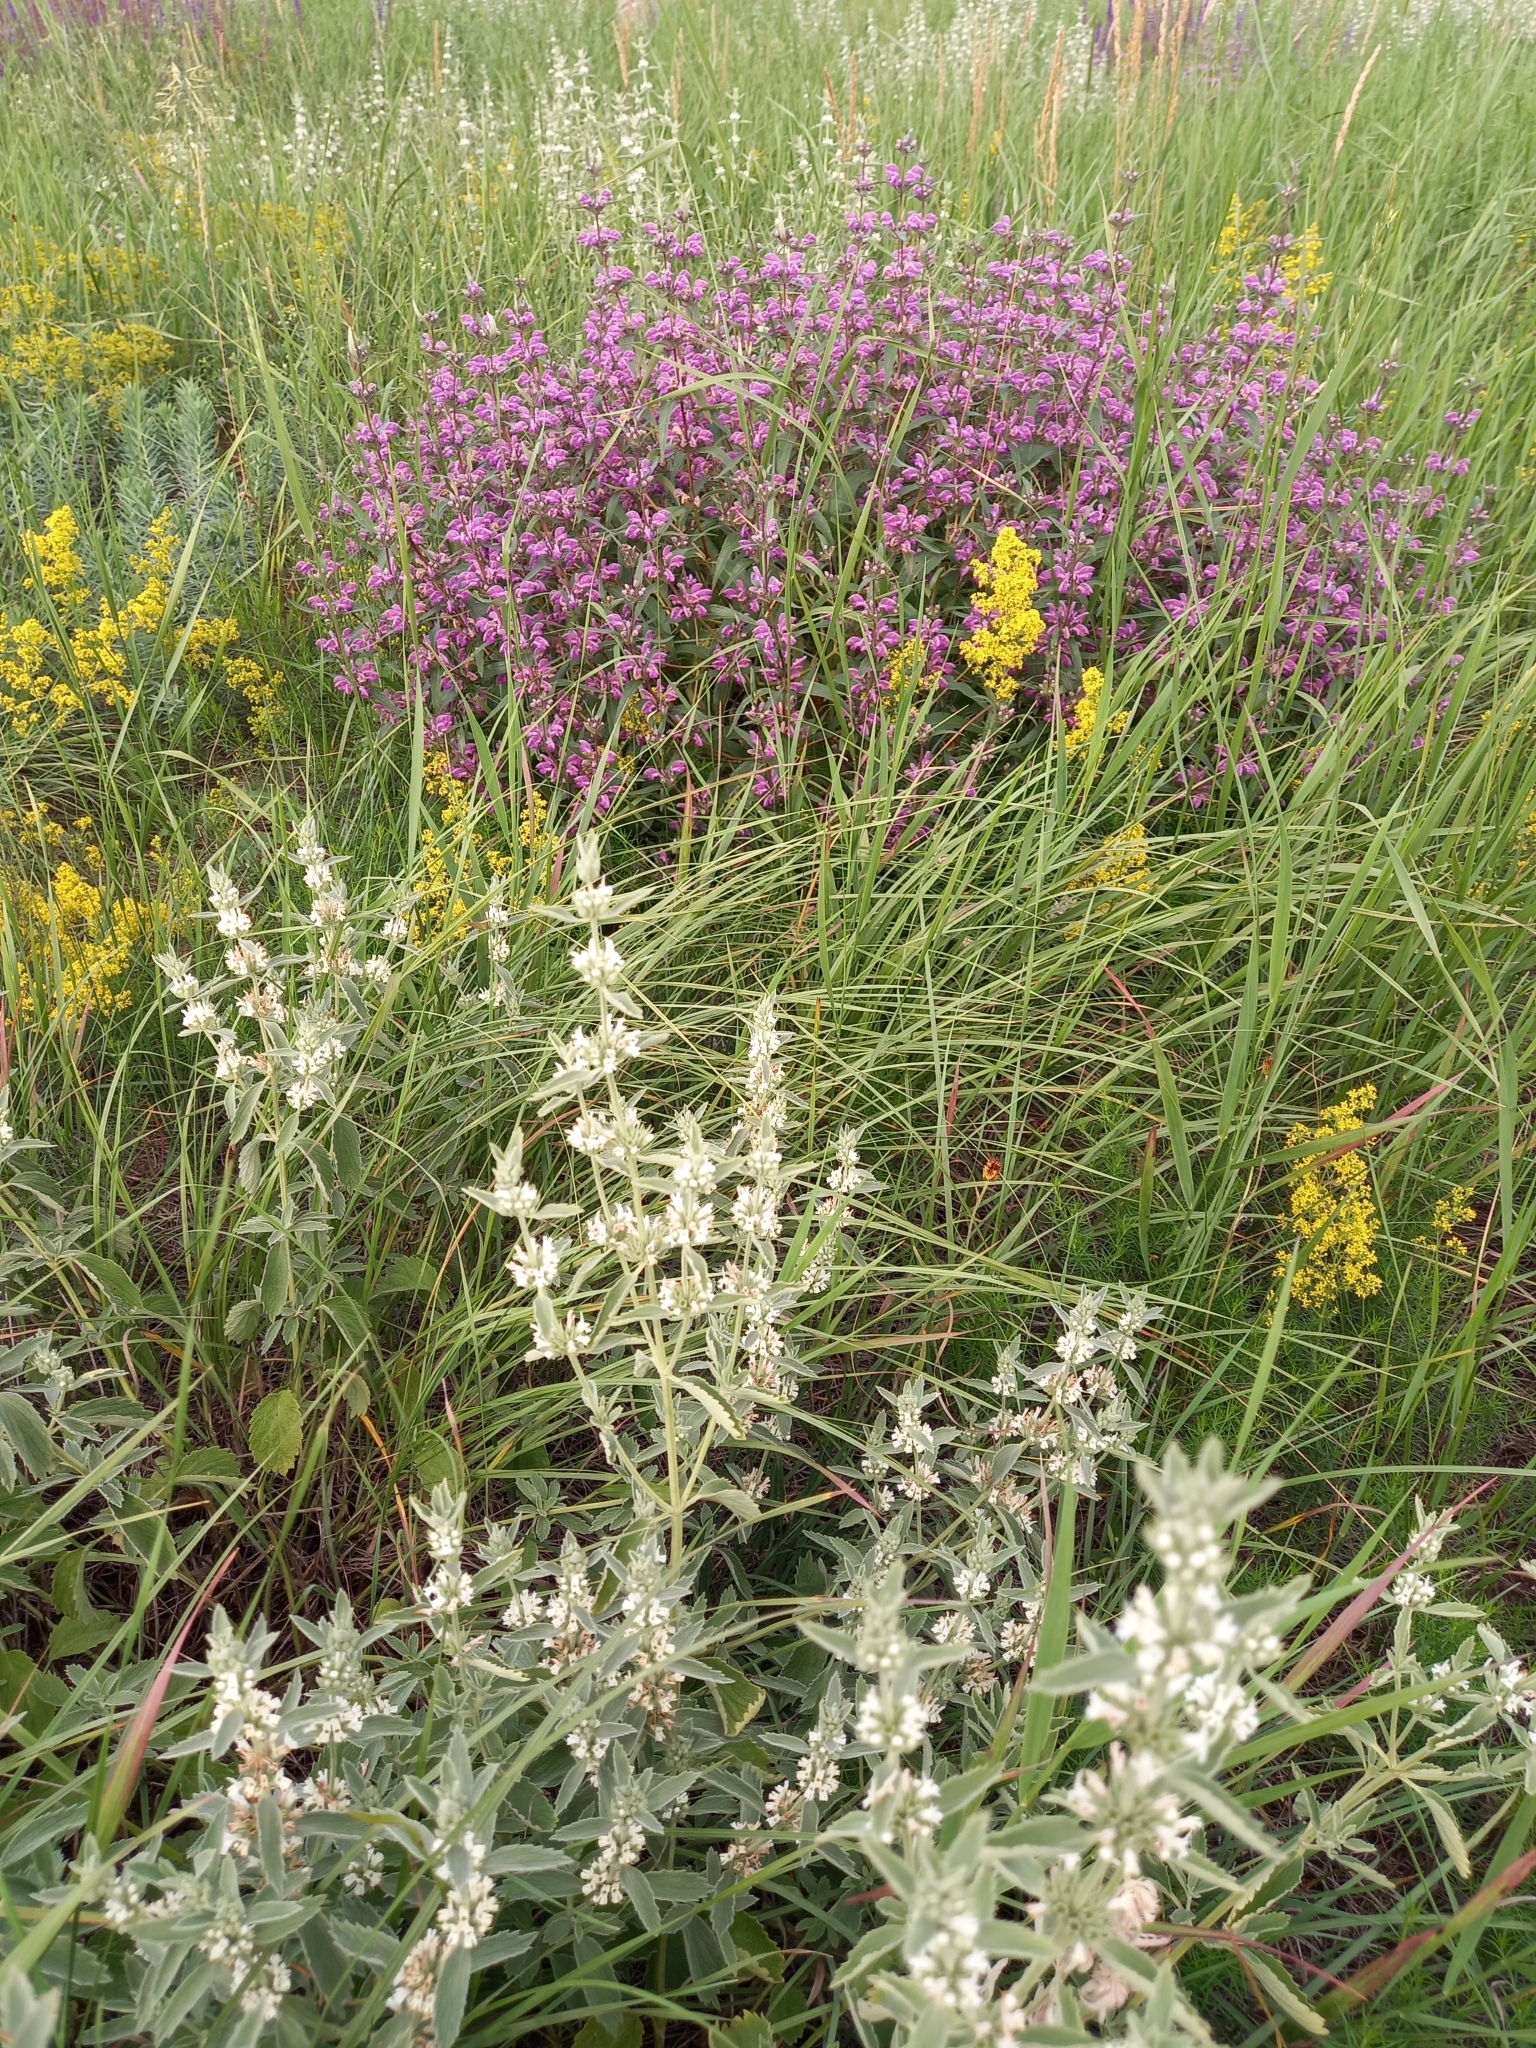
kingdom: Plantae
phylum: Tracheophyta
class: Magnoliopsida
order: Lamiales
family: Lamiaceae
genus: Marrubium
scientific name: Marrubium peregrinum
